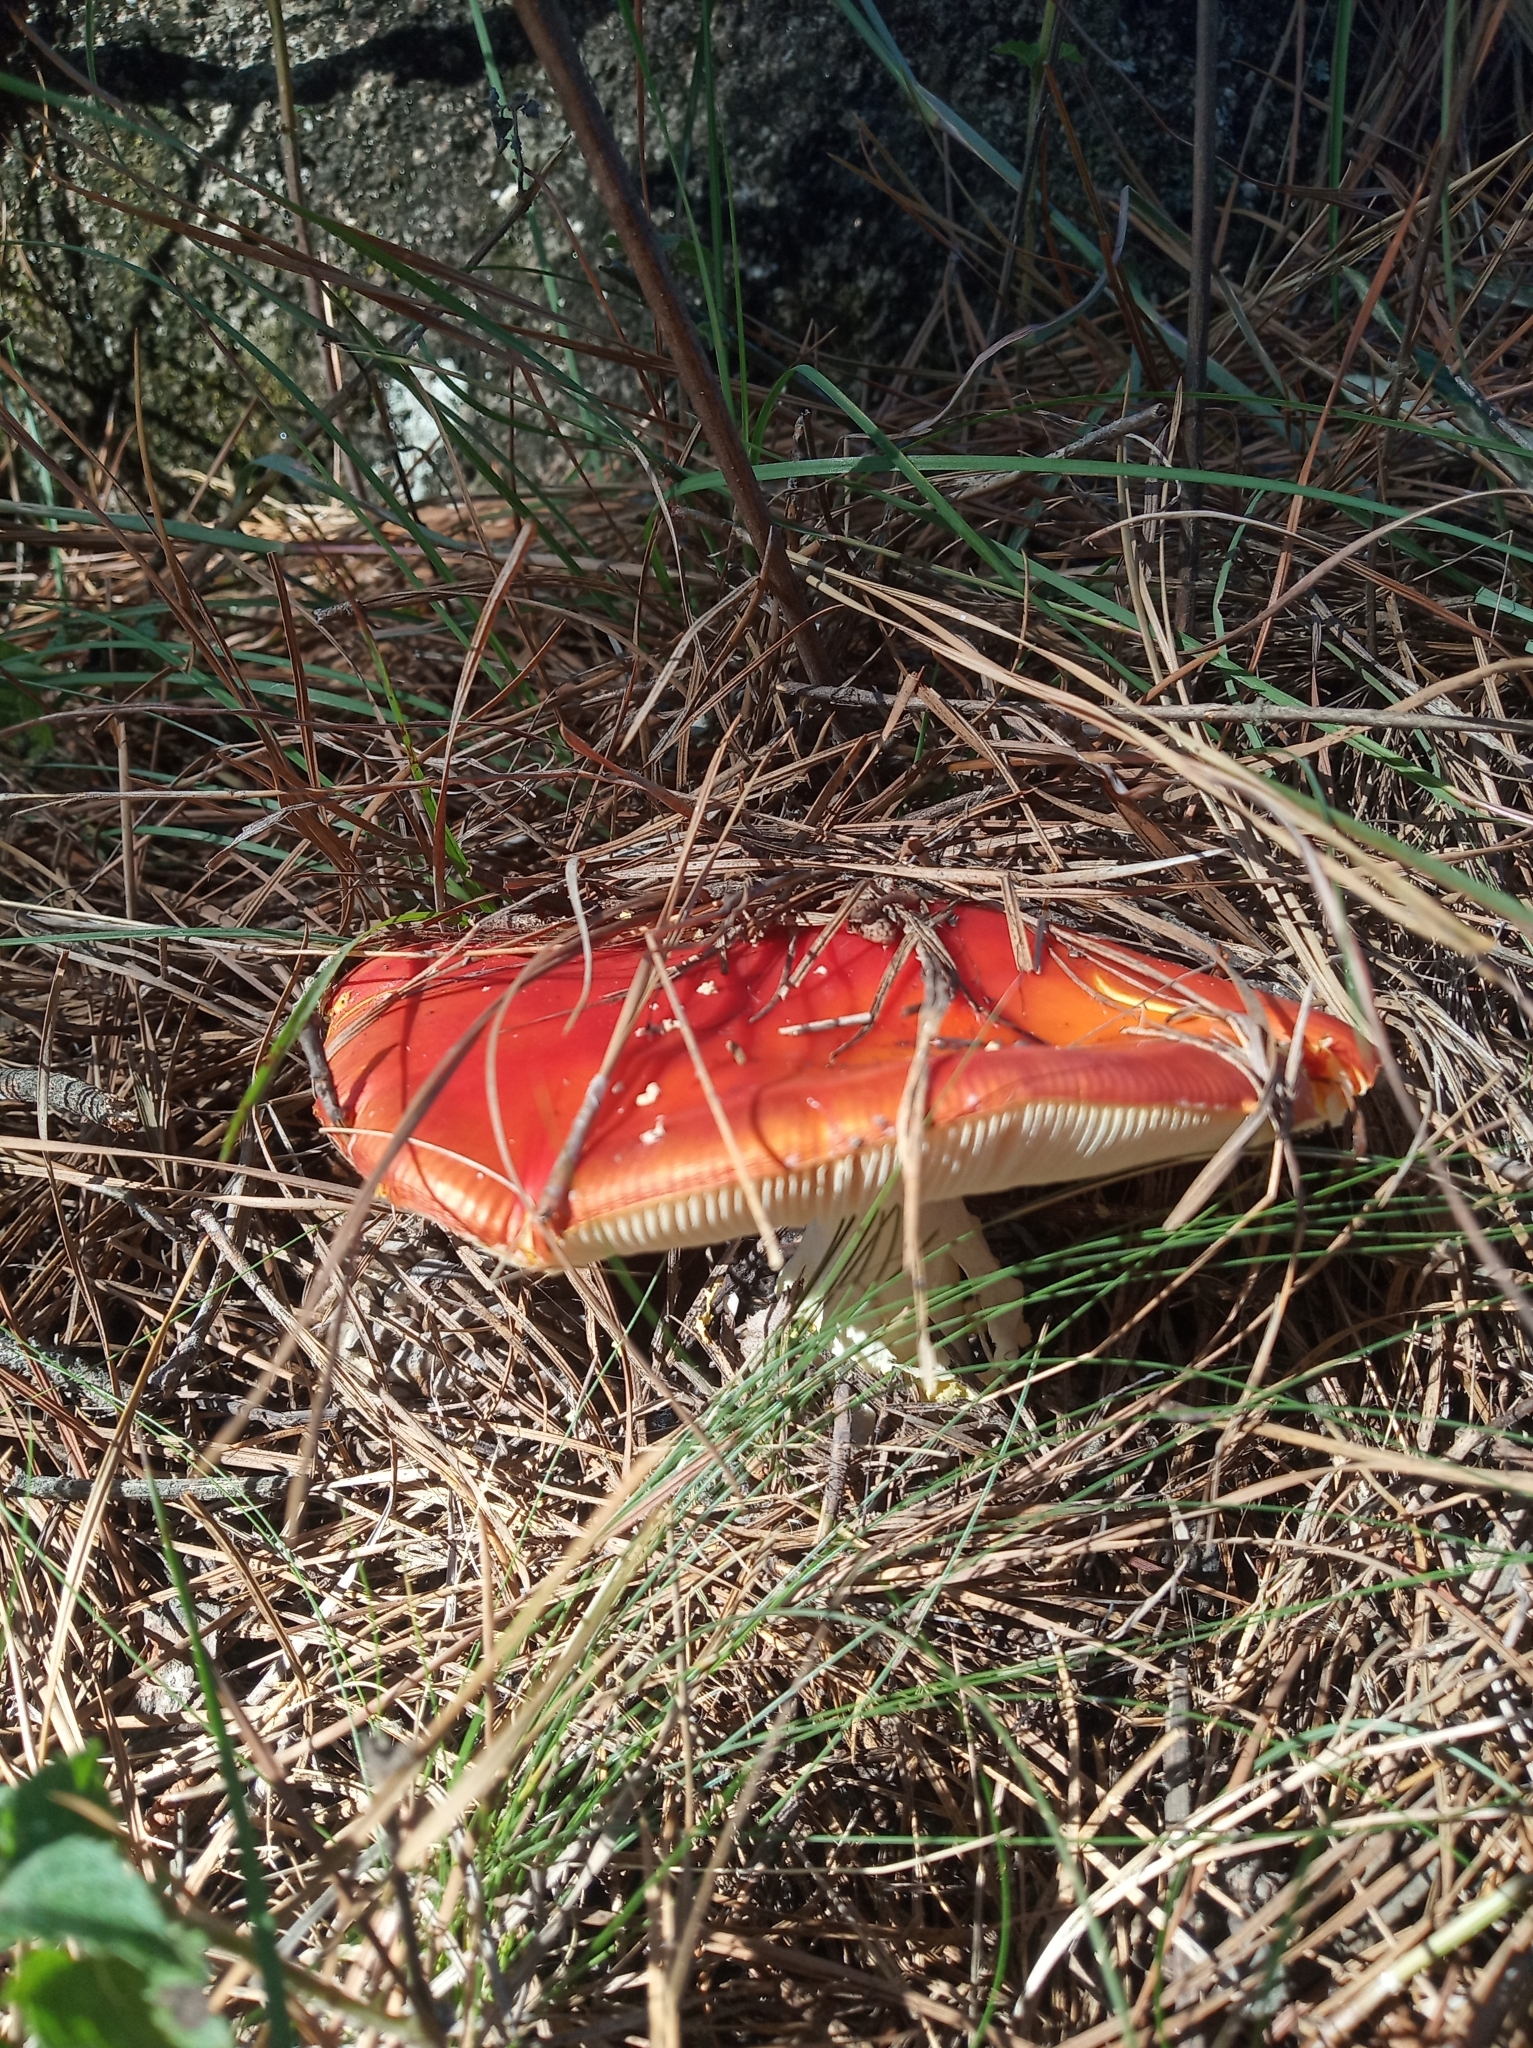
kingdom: Fungi
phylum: Basidiomycota
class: Agaricomycetes
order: Agaricales
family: Amanitaceae
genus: Amanita
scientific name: Amanita muscaria
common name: Fly agaric
